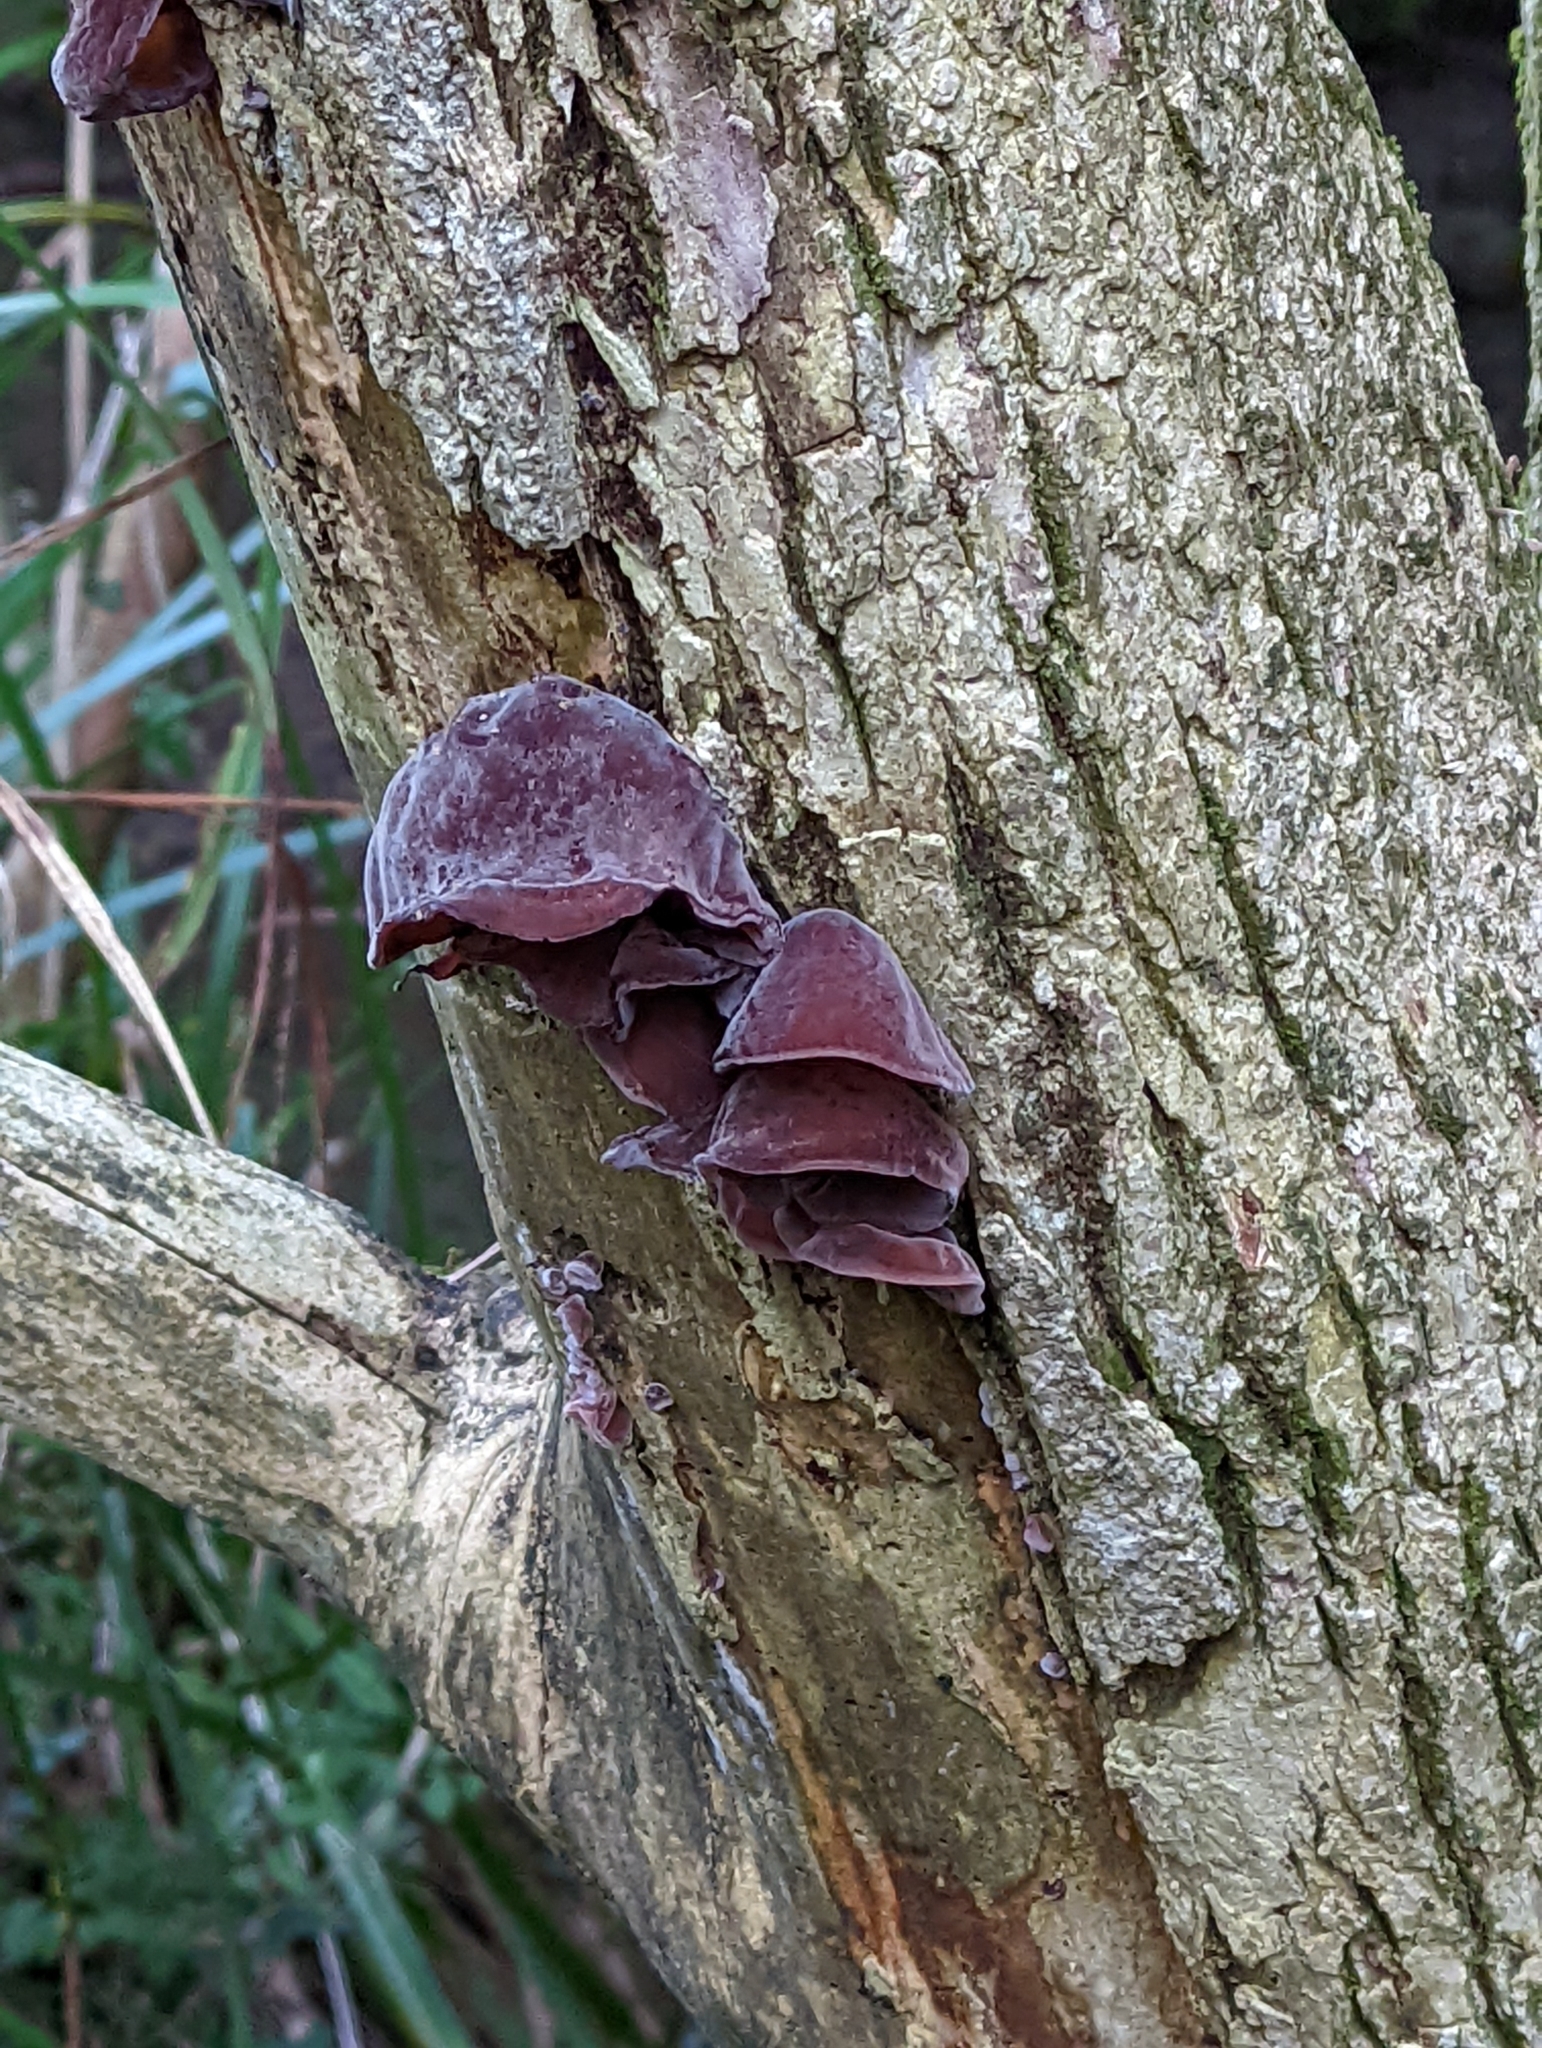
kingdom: Fungi
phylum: Basidiomycota
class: Agaricomycetes
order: Auriculariales
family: Auriculariaceae
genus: Auricularia
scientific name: Auricularia auricula-judae
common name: Jelly ear
